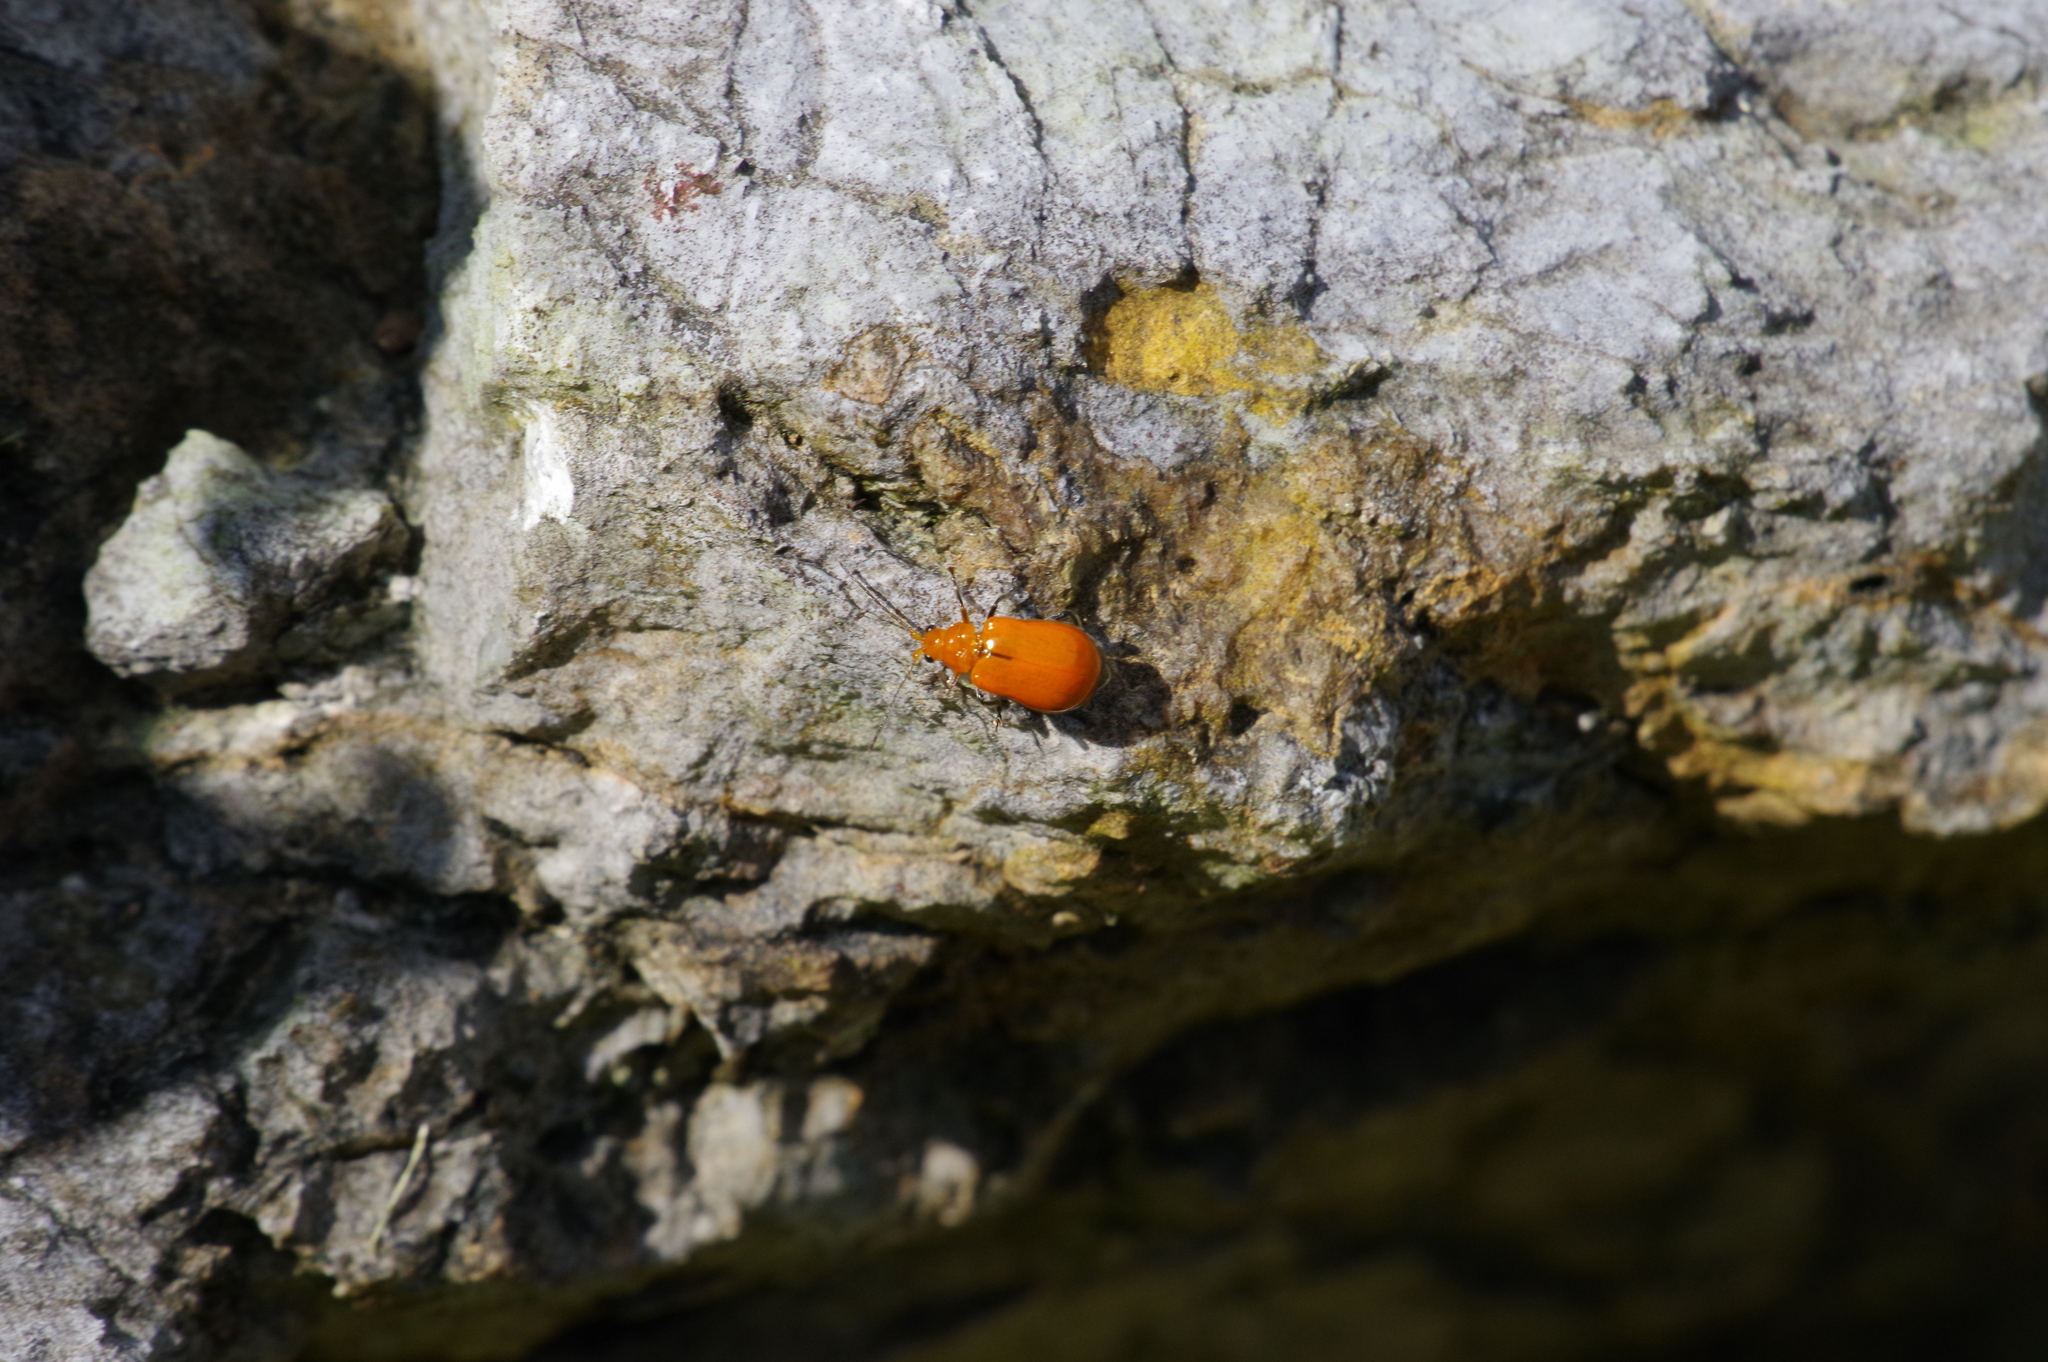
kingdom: Animalia
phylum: Arthropoda
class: Insecta
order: Coleoptera
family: Chrysomelidae
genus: Aulacophora
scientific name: Aulacophora indica
